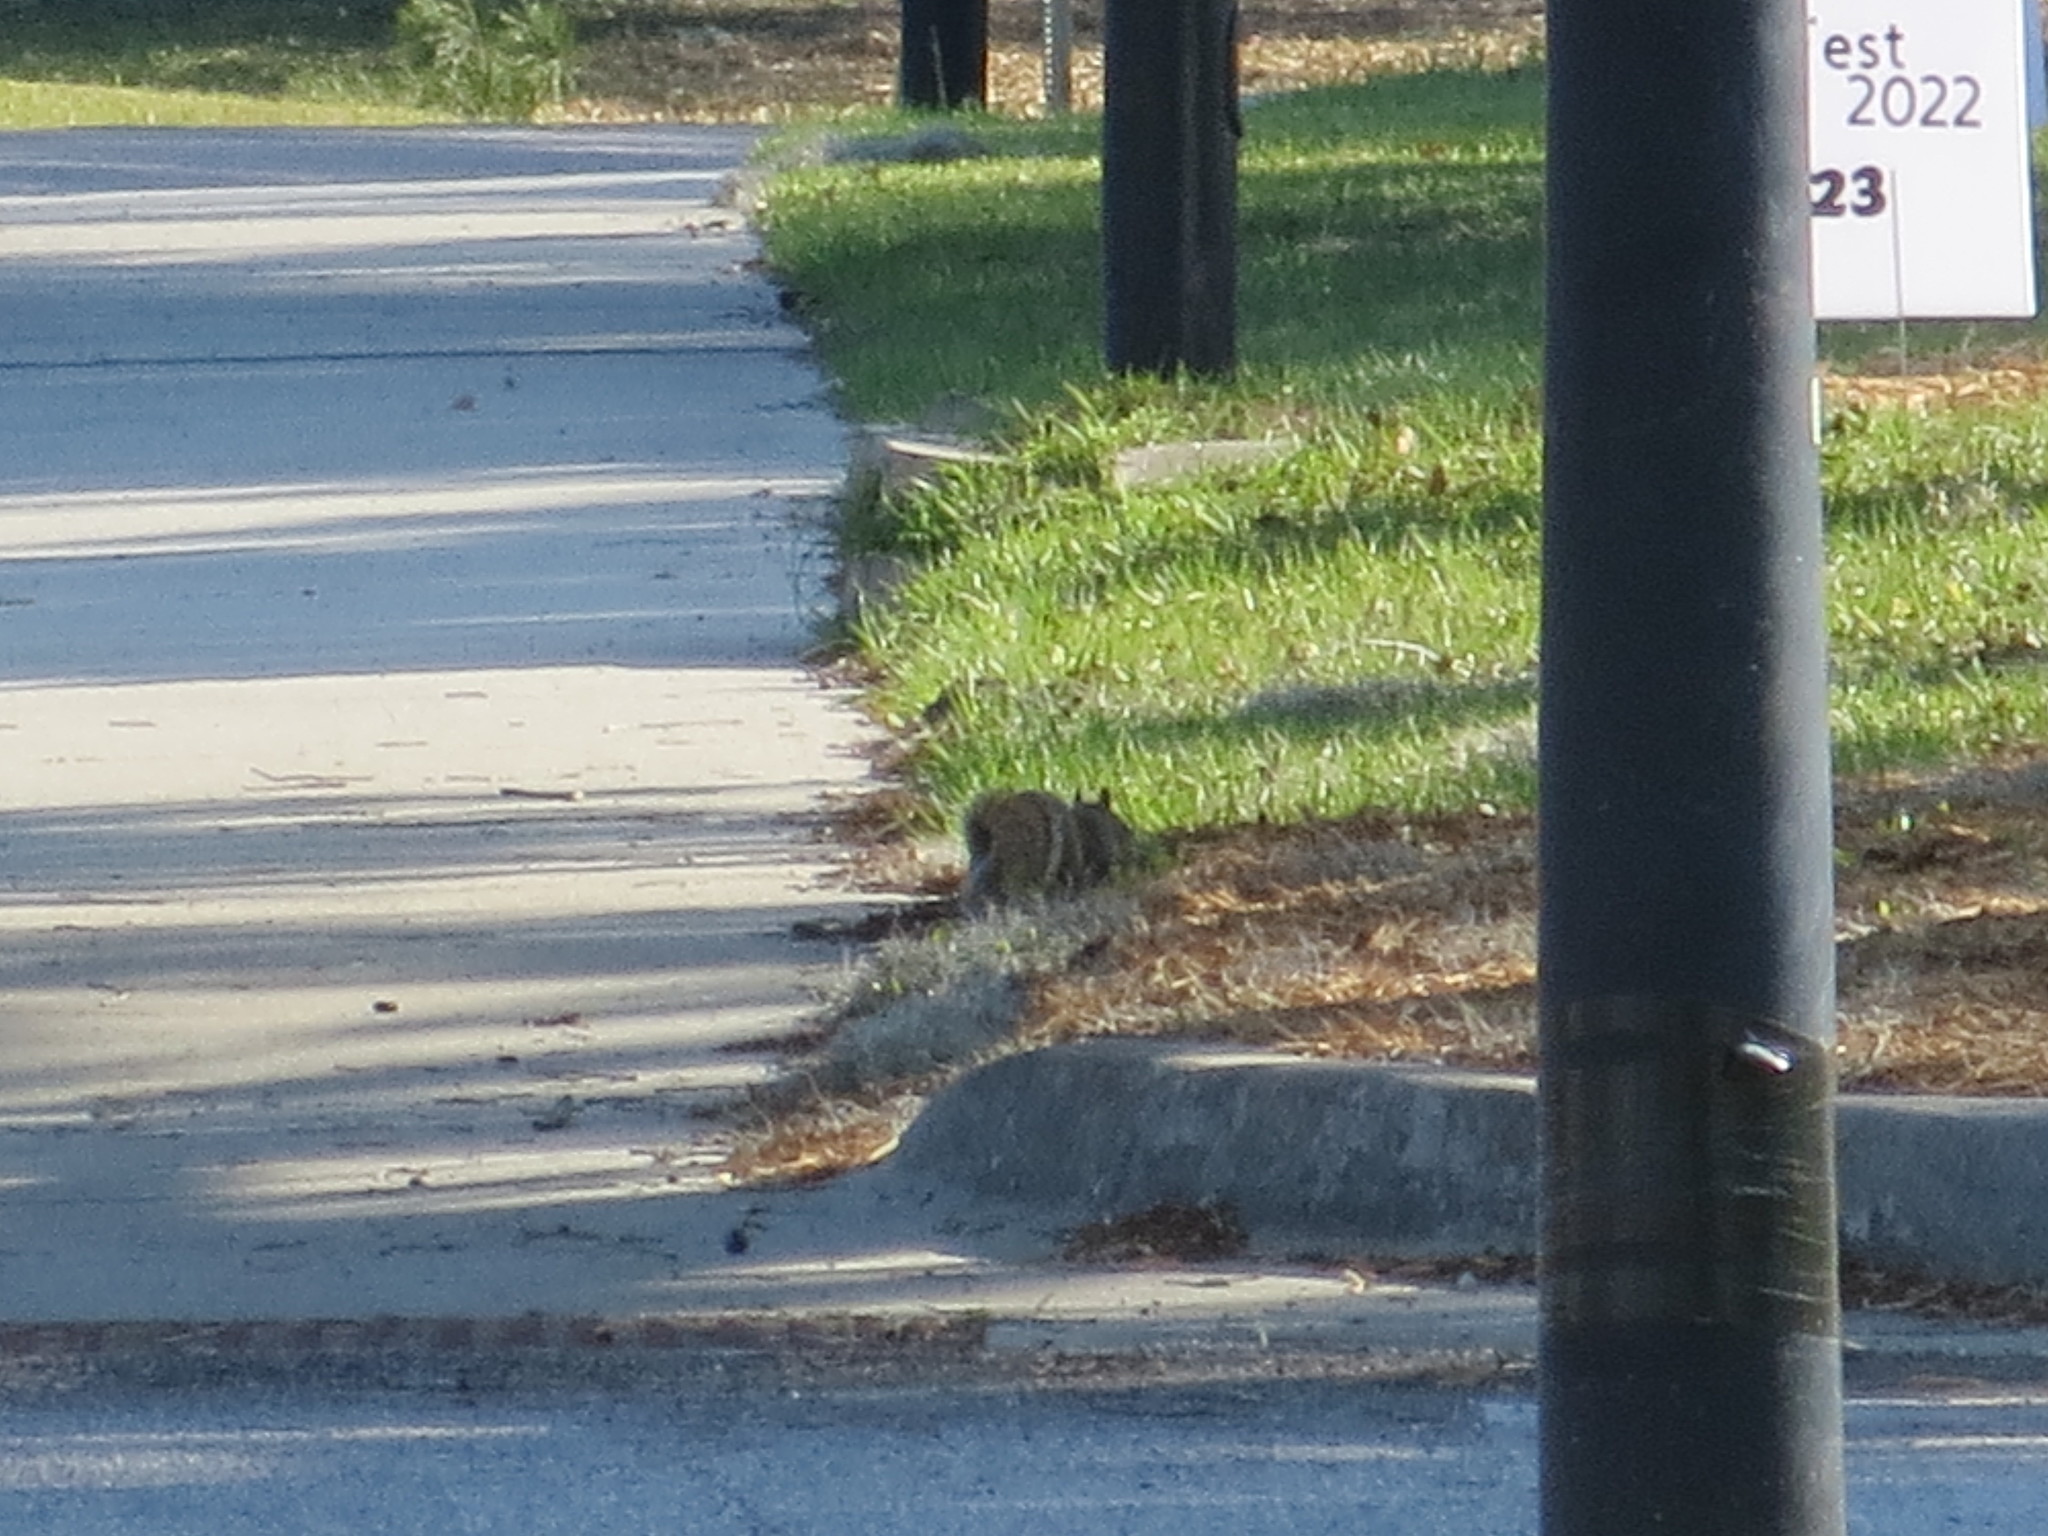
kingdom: Animalia
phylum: Chordata
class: Mammalia
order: Rodentia
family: Sciuridae
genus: Sciurus
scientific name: Sciurus carolinensis
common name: Eastern gray squirrel
